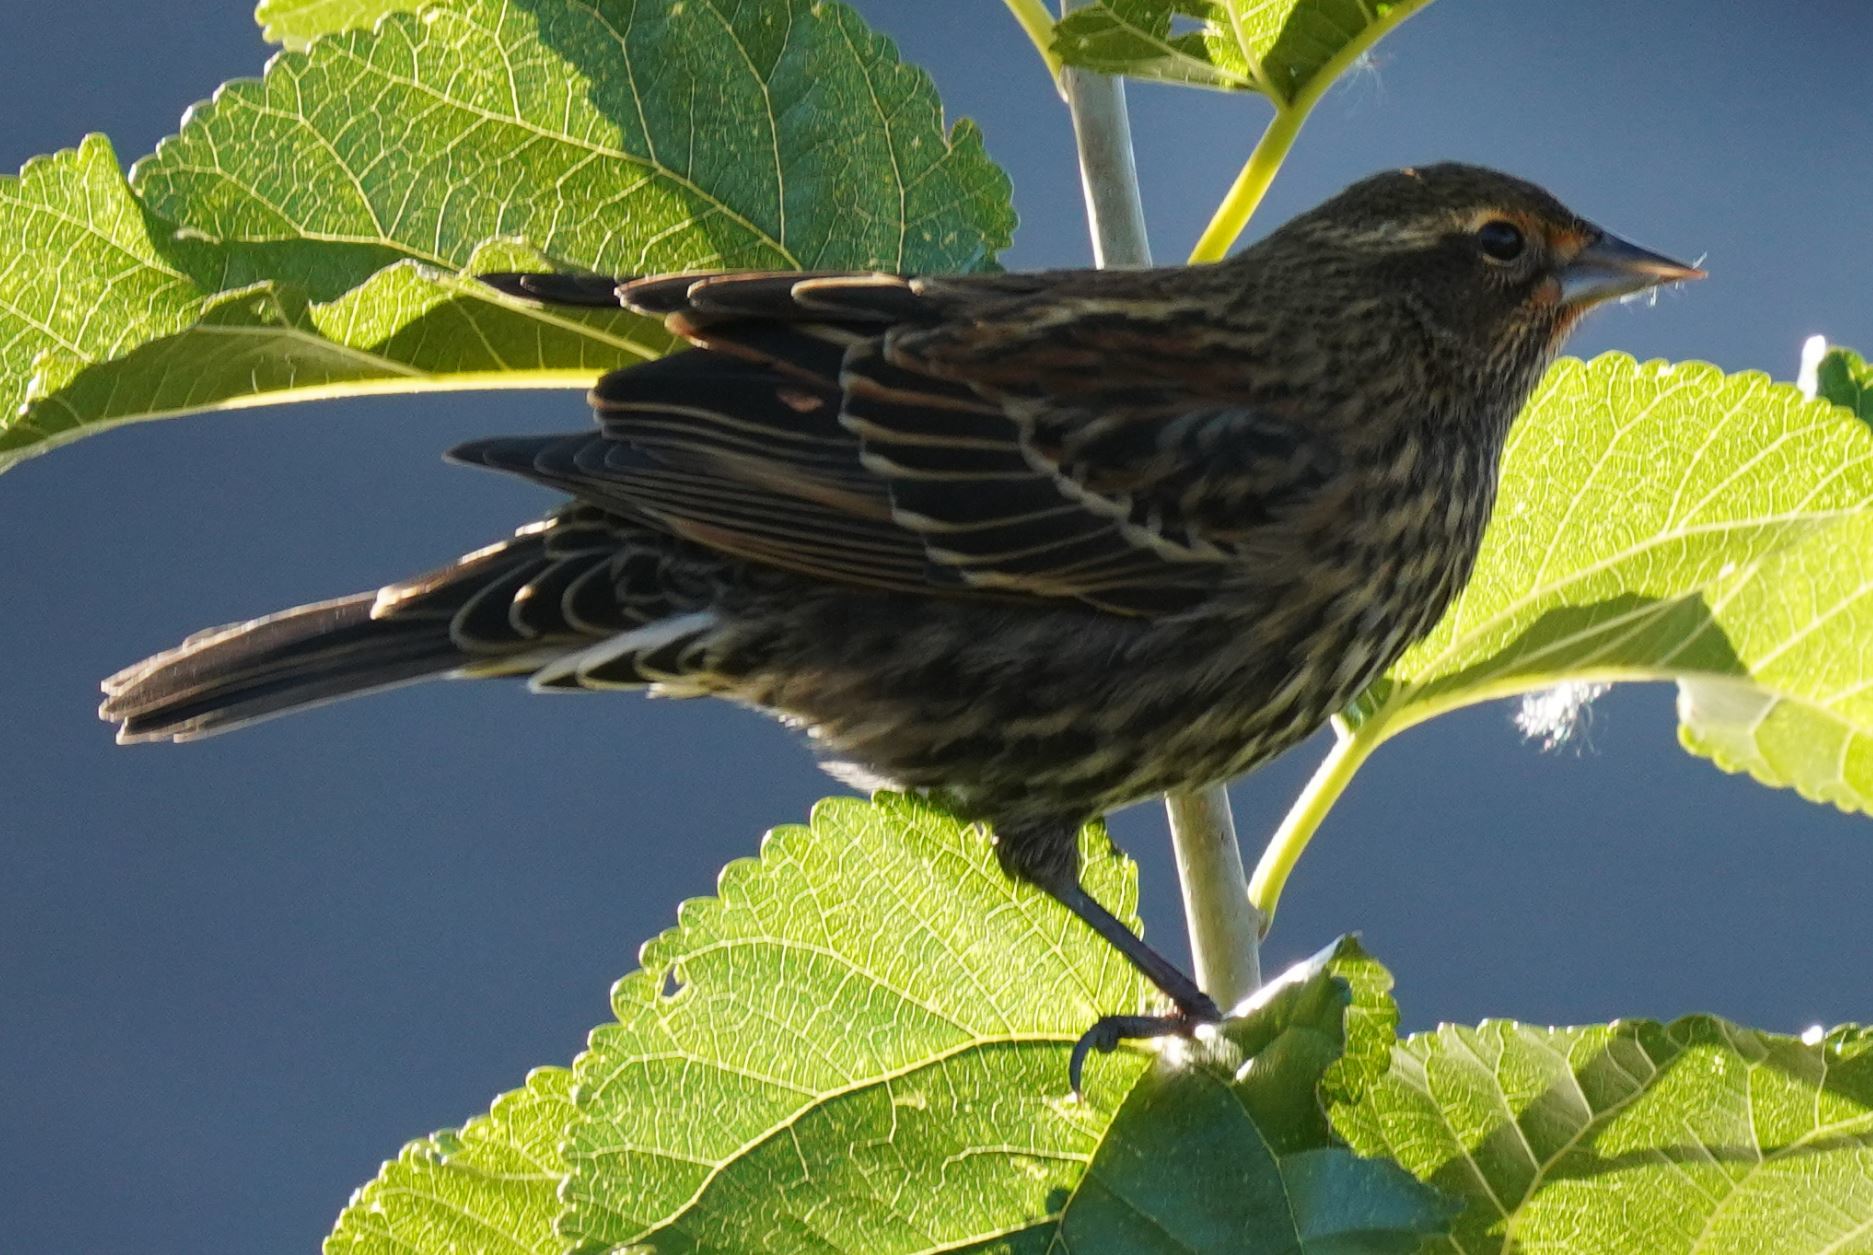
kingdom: Animalia
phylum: Chordata
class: Aves
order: Passeriformes
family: Icteridae
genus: Agelaius
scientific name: Agelaius phoeniceus
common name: Red-winged blackbird
